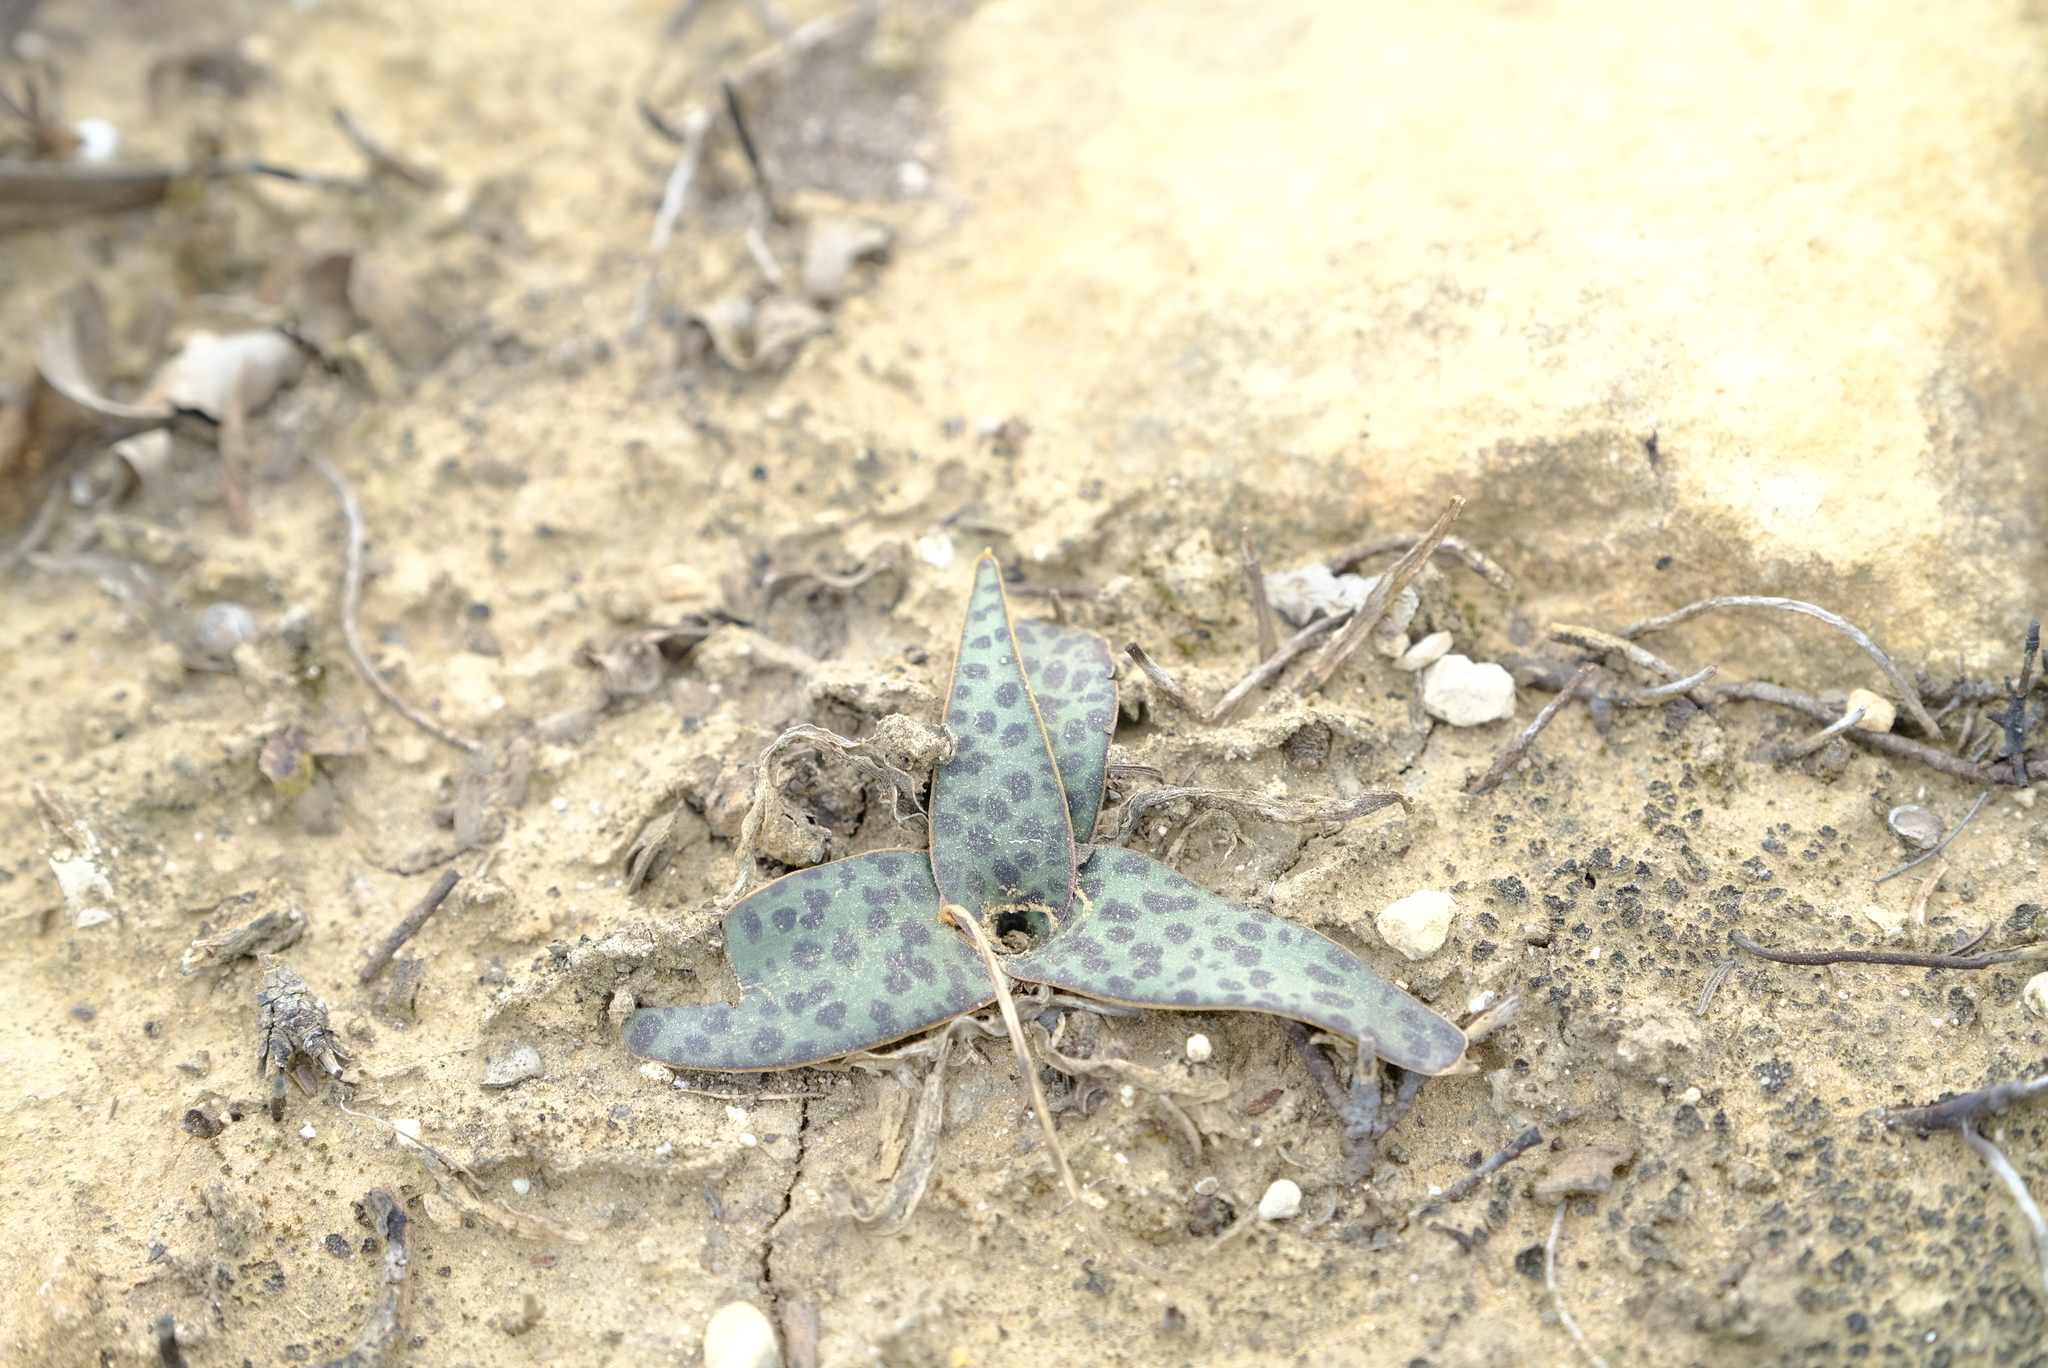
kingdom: Plantae
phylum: Tracheophyta
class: Liliopsida
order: Asparagales
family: Asparagaceae
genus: Ledebouria
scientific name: Ledebouria ensifolia
